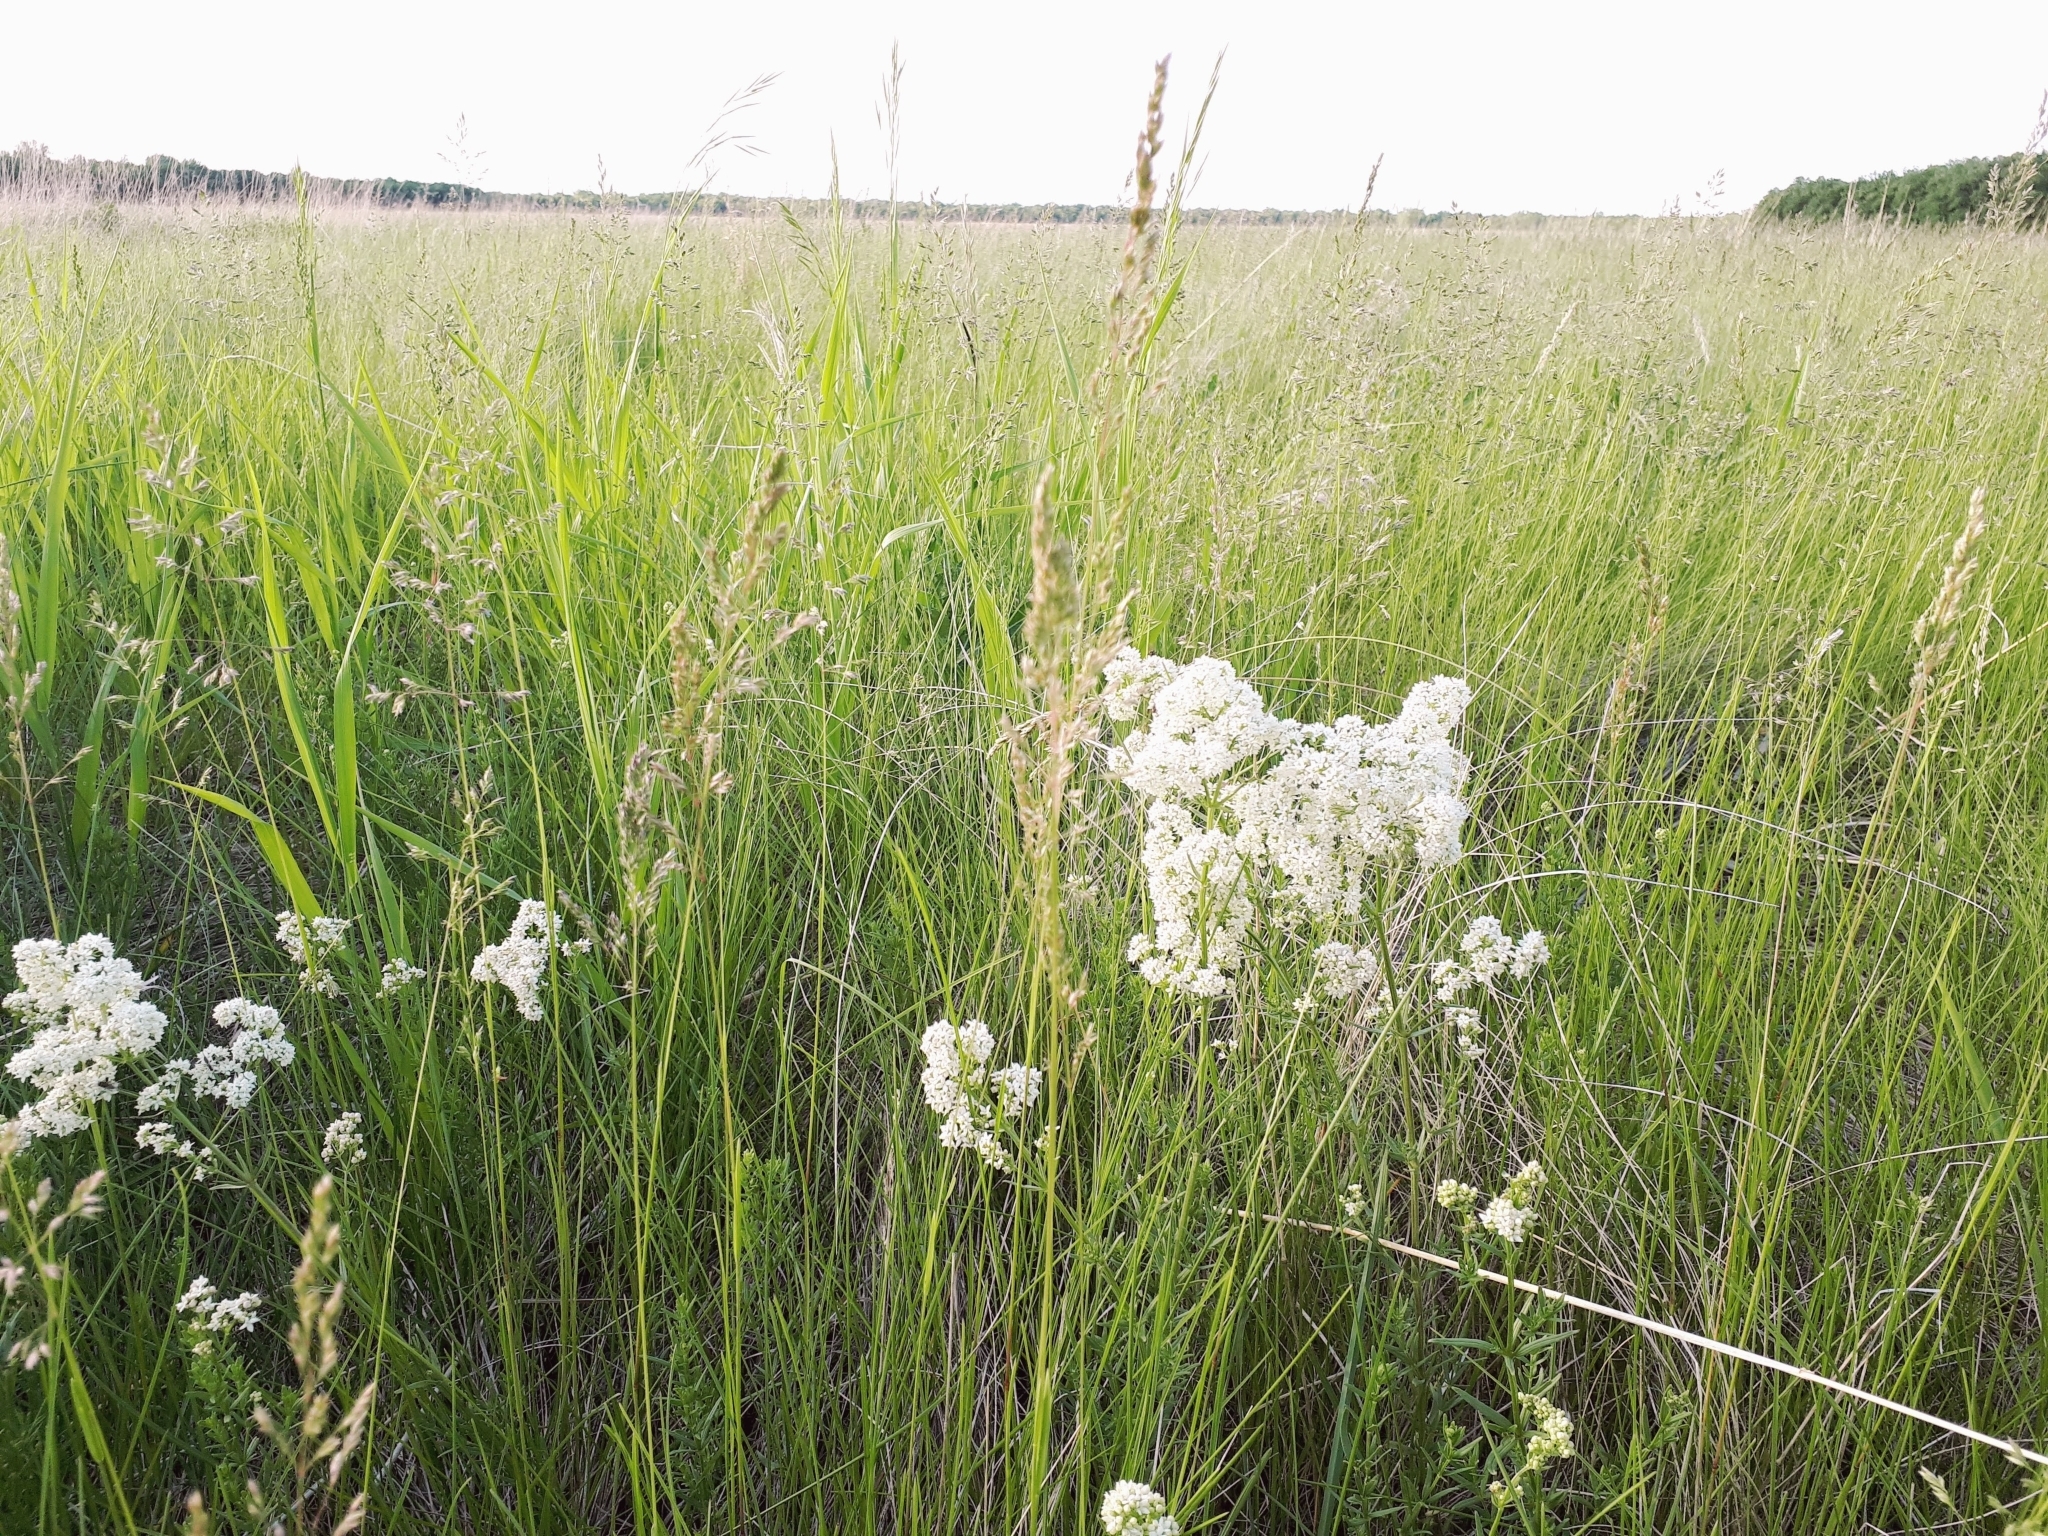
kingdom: Plantae
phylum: Tracheophyta
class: Magnoliopsida
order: Gentianales
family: Rubiaceae
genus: Galium
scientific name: Galium boreale
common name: Northern bedstraw
